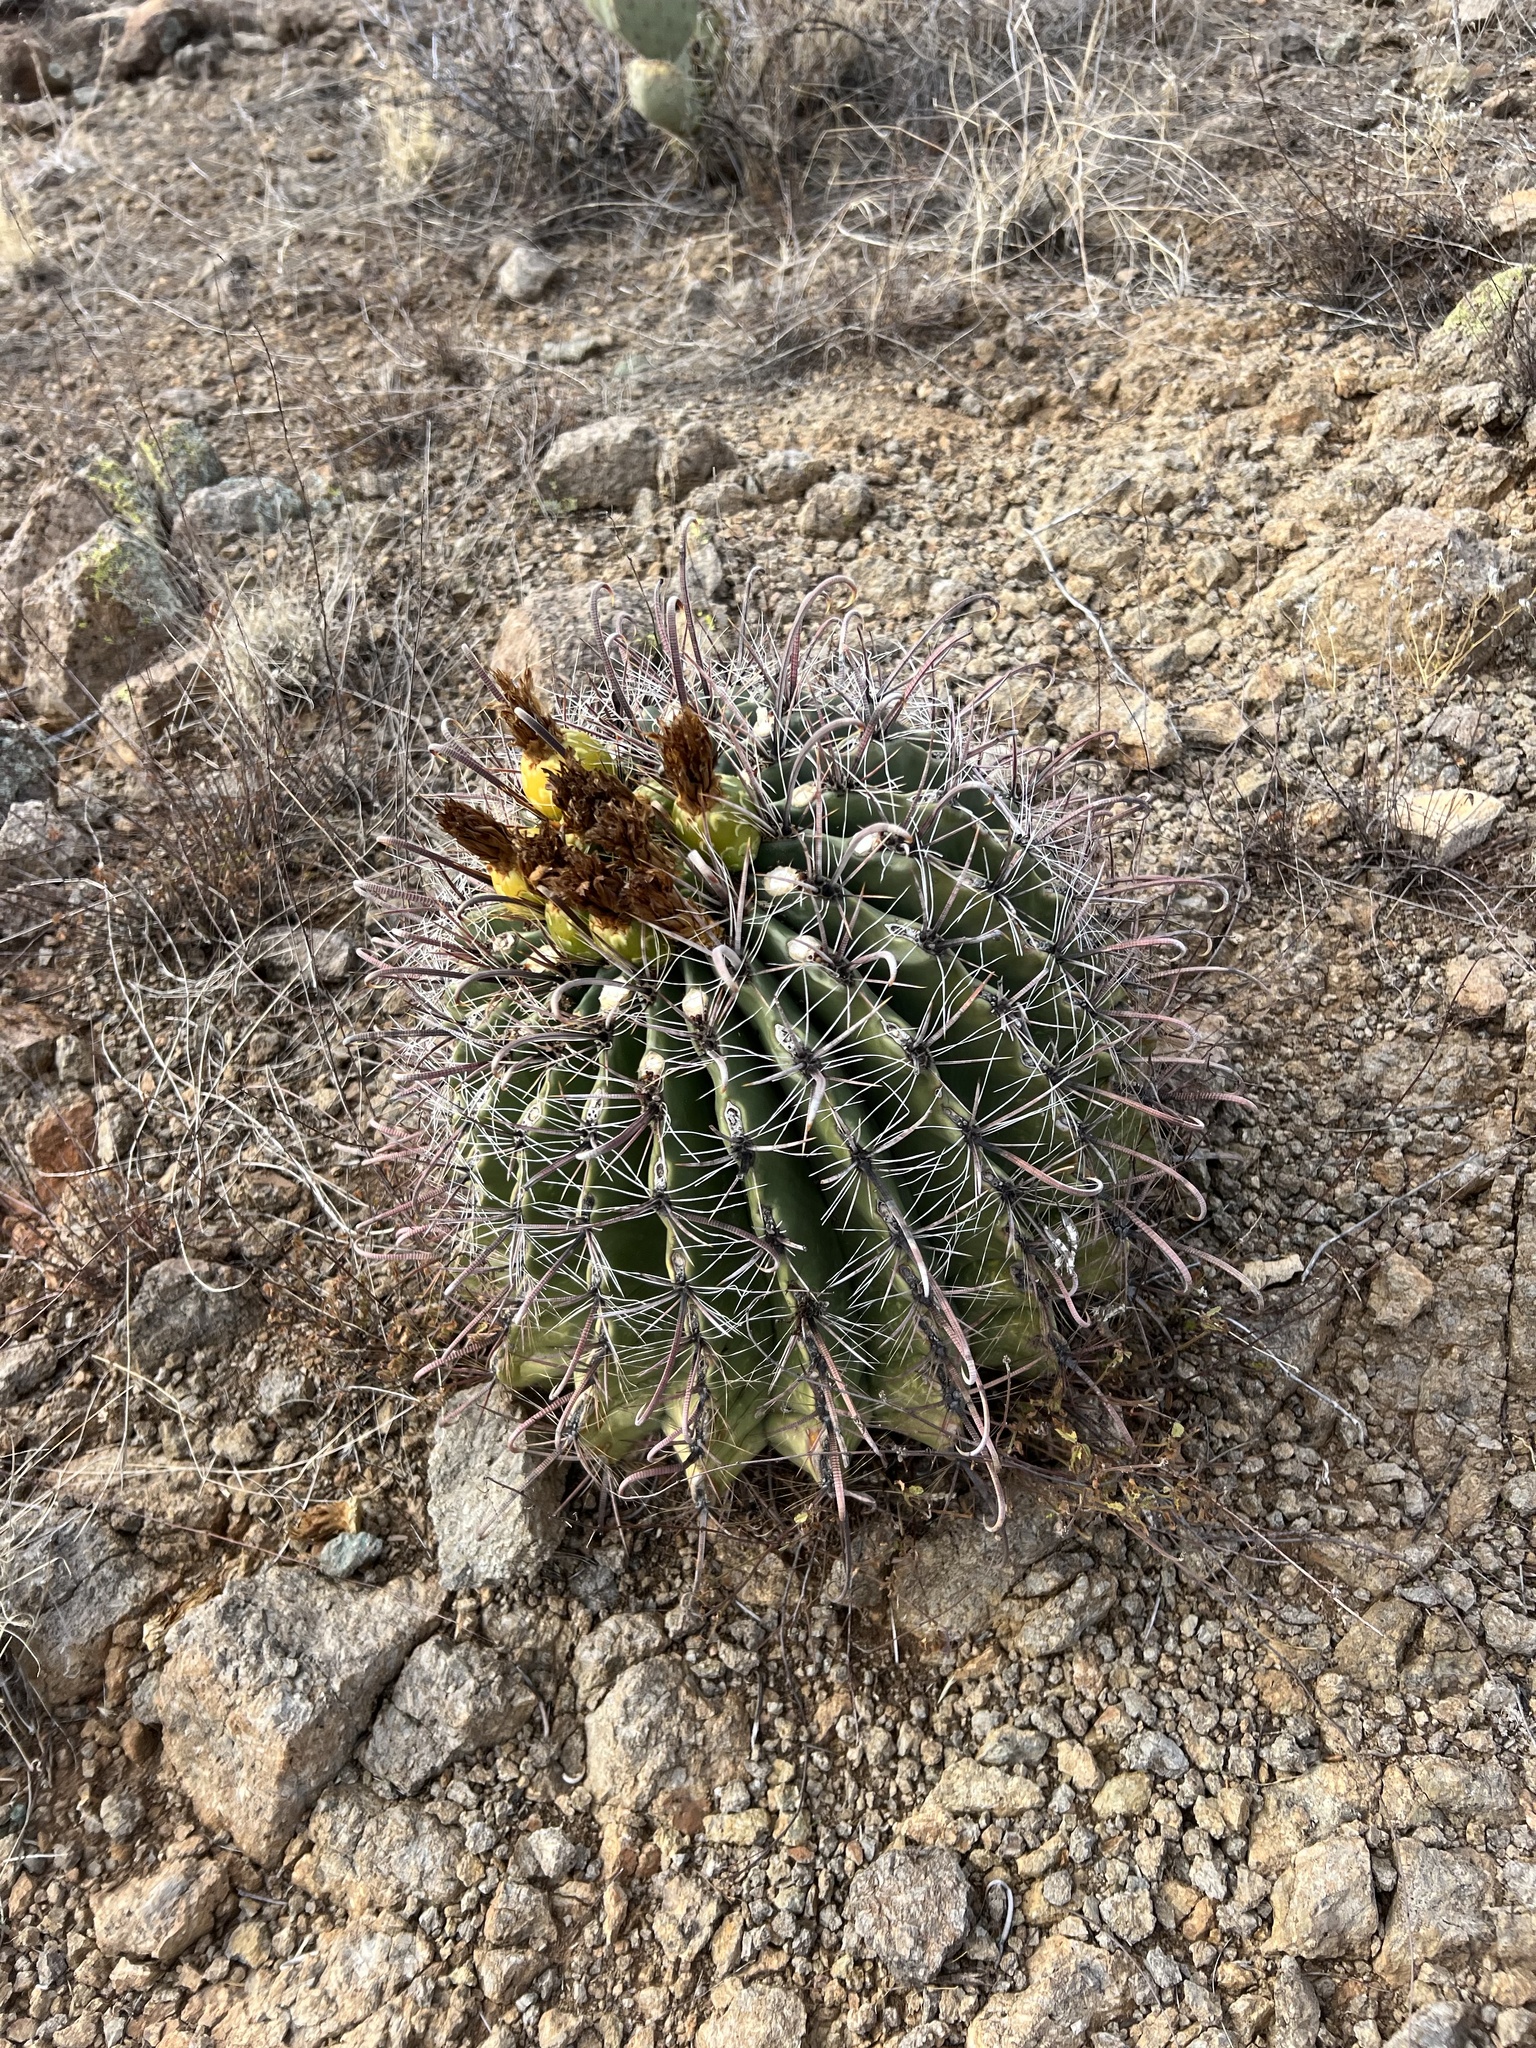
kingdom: Plantae
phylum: Tracheophyta
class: Magnoliopsida
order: Caryophyllales
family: Cactaceae
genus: Ferocactus
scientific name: Ferocactus wislizeni
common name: Candy barrel cactus
